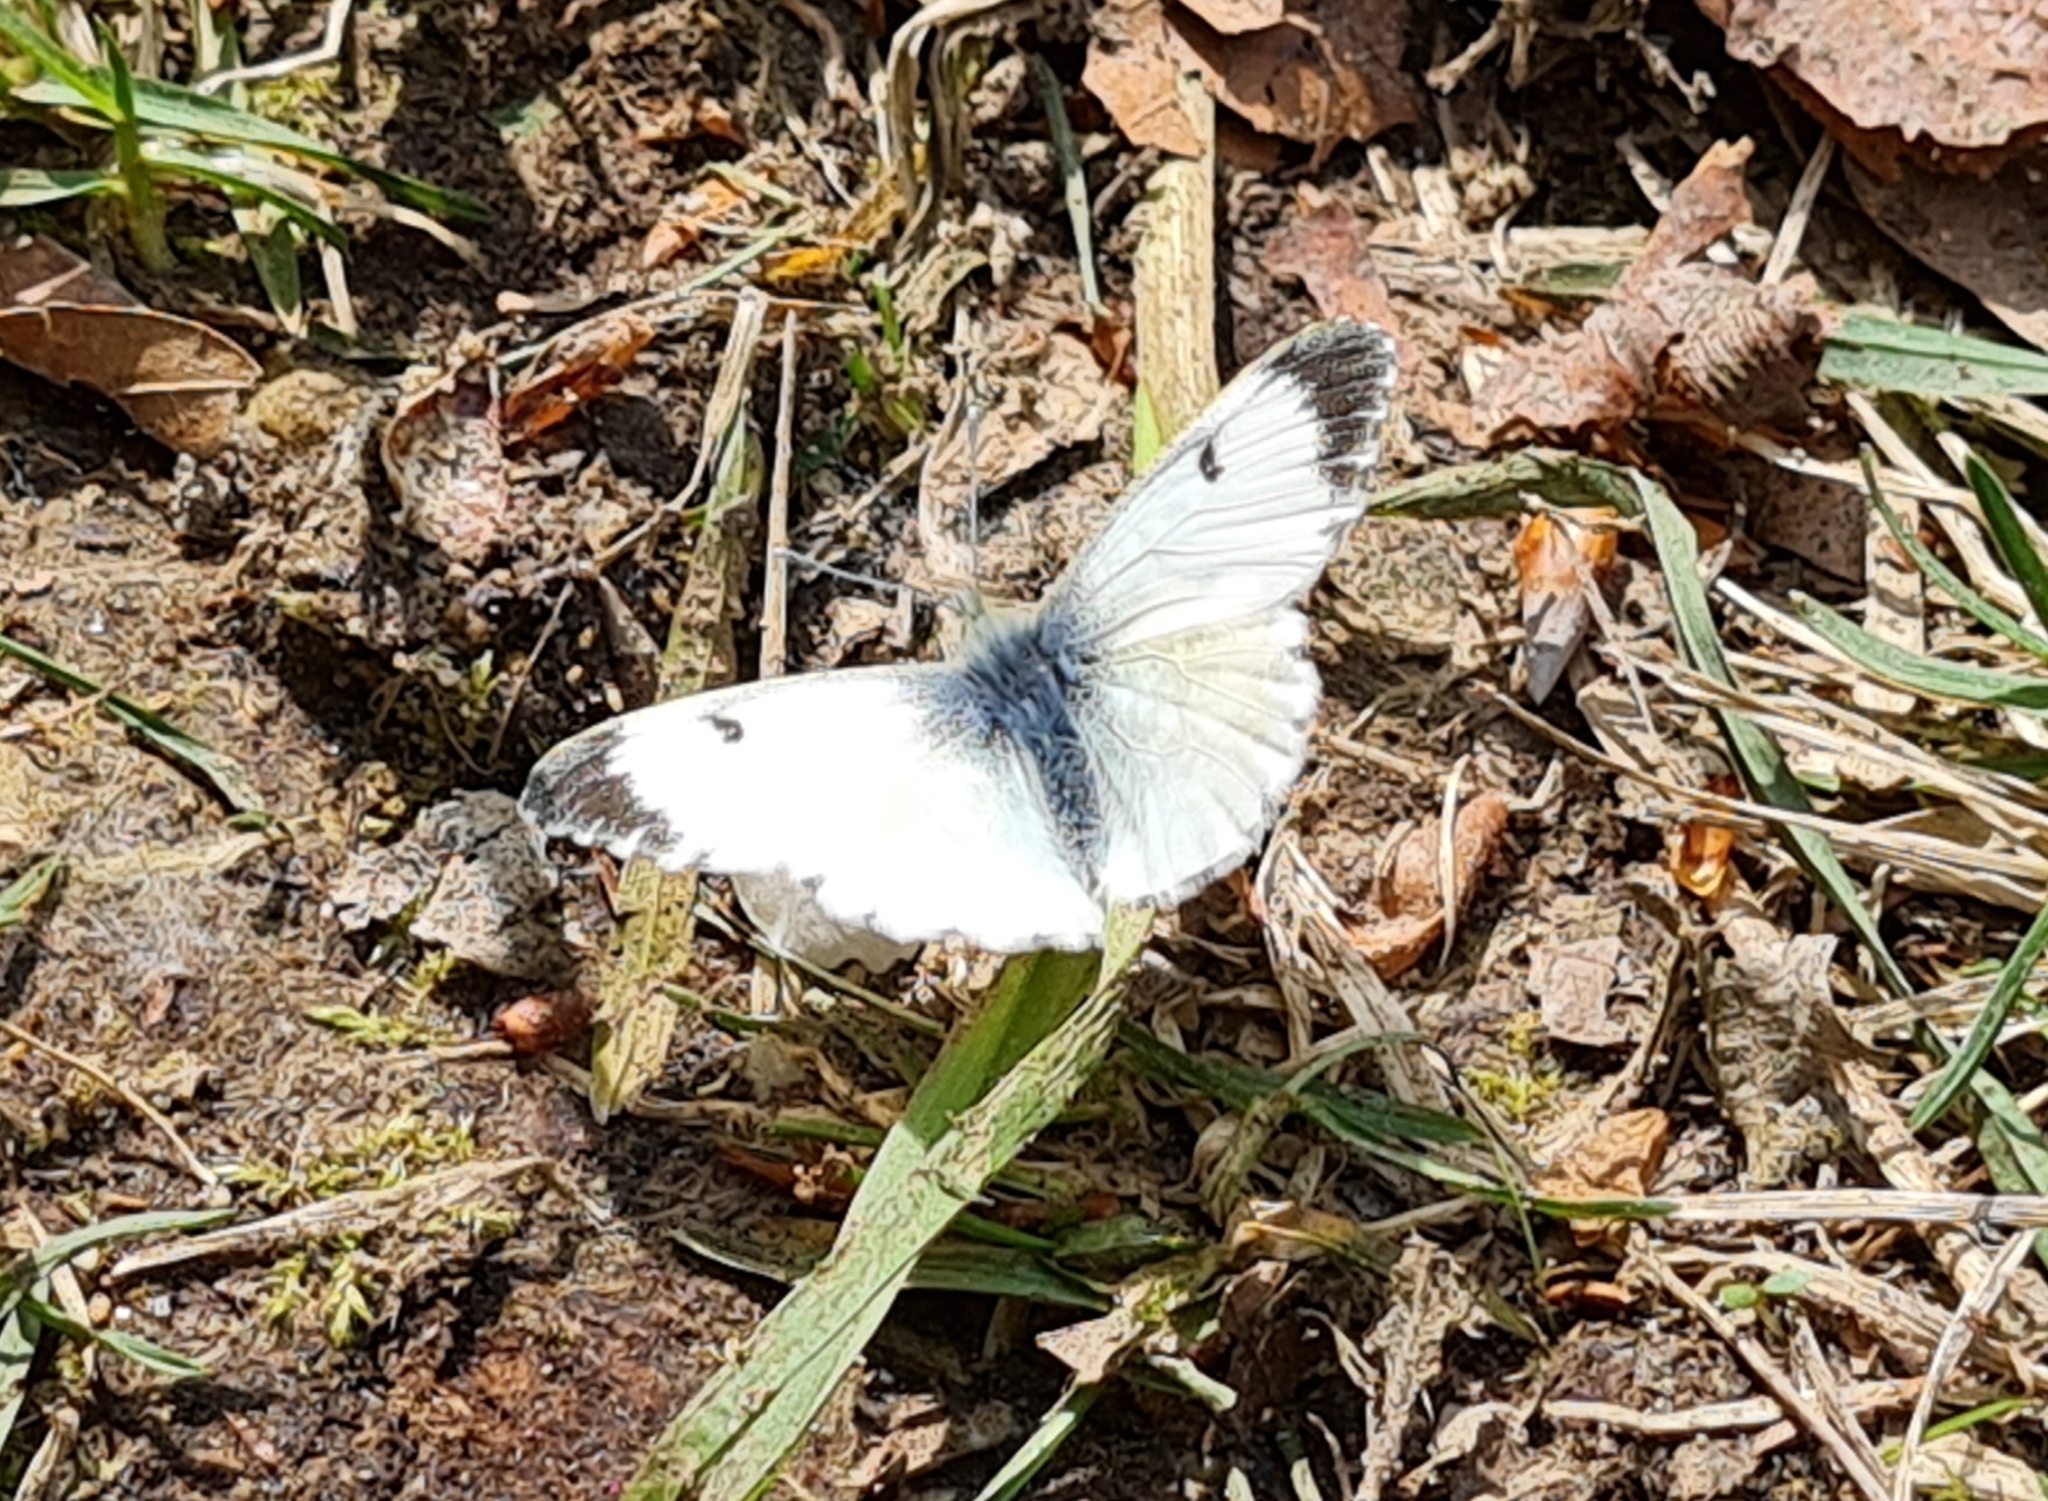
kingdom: Animalia
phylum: Arthropoda
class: Insecta
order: Lepidoptera
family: Pieridae
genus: Anthocharis
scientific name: Anthocharis cardamines
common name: Orange-tip
